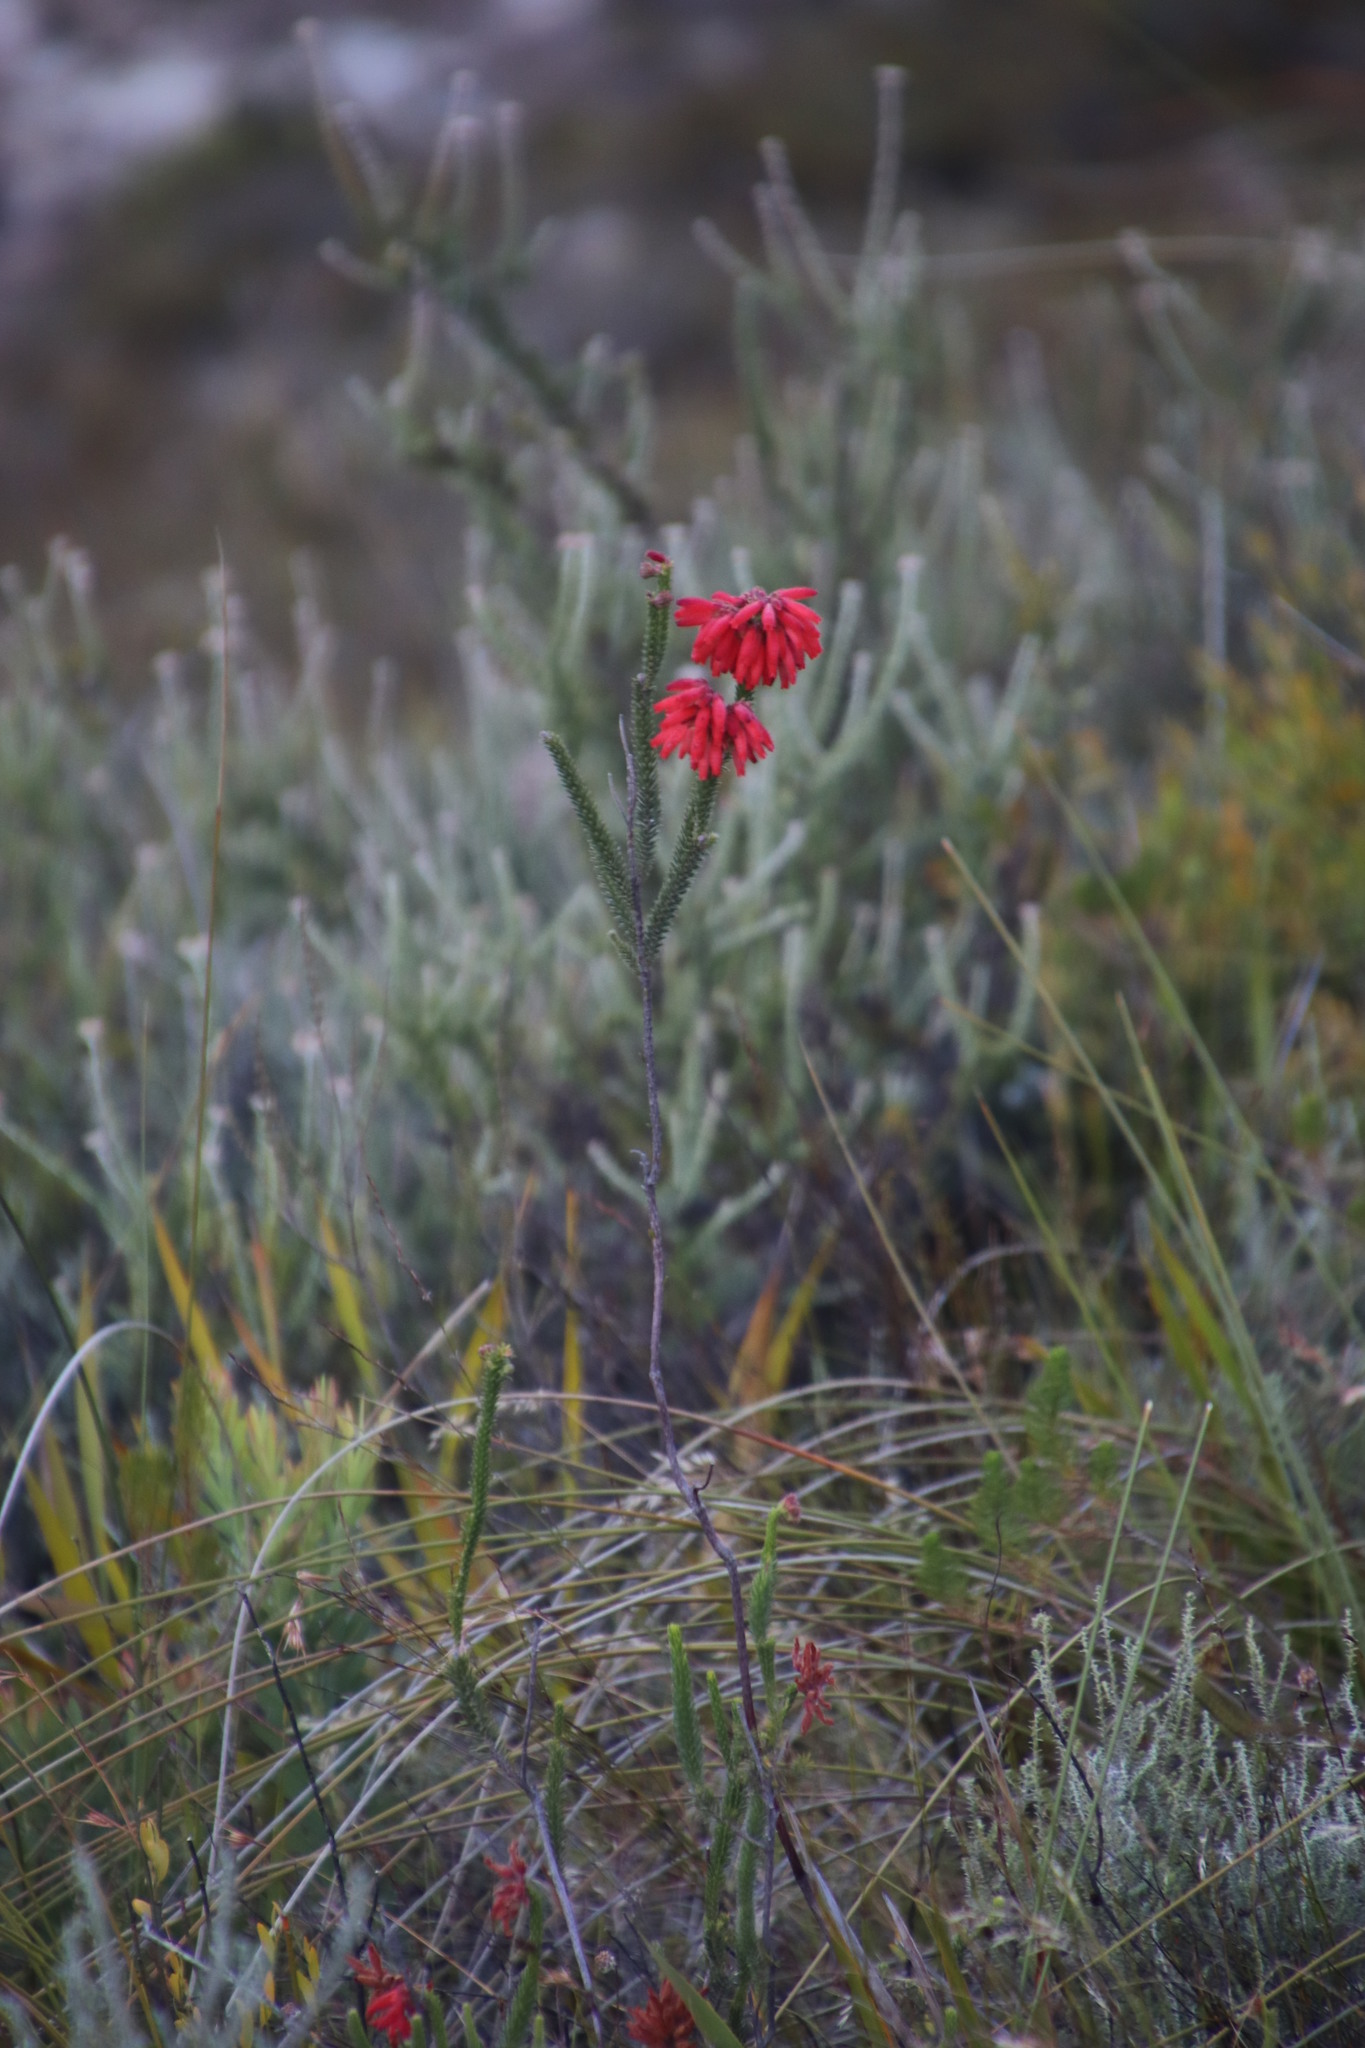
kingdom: Plantae
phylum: Tracheophyta
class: Magnoliopsida
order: Ericales
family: Ericaceae
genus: Erica
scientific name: Erica cerinthoides
